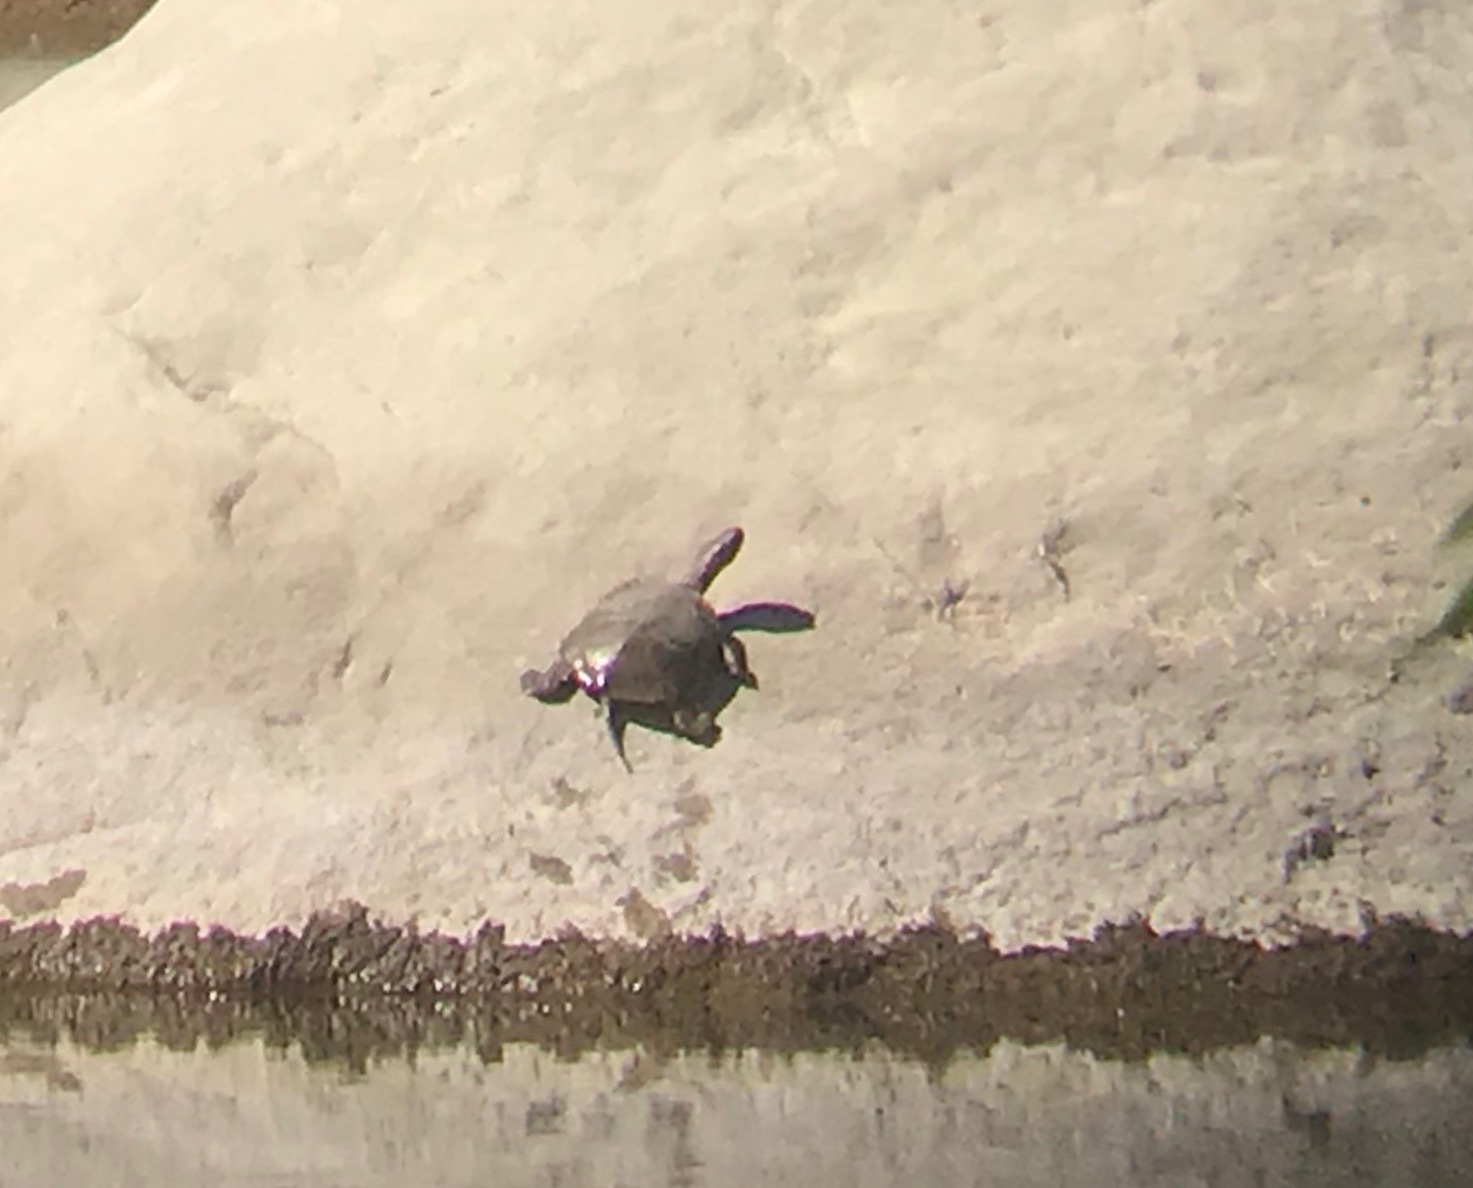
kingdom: Animalia
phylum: Chordata
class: Testudines
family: Emydidae
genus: Actinemys
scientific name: Actinemys pallida
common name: Southern pacific pond turtle
